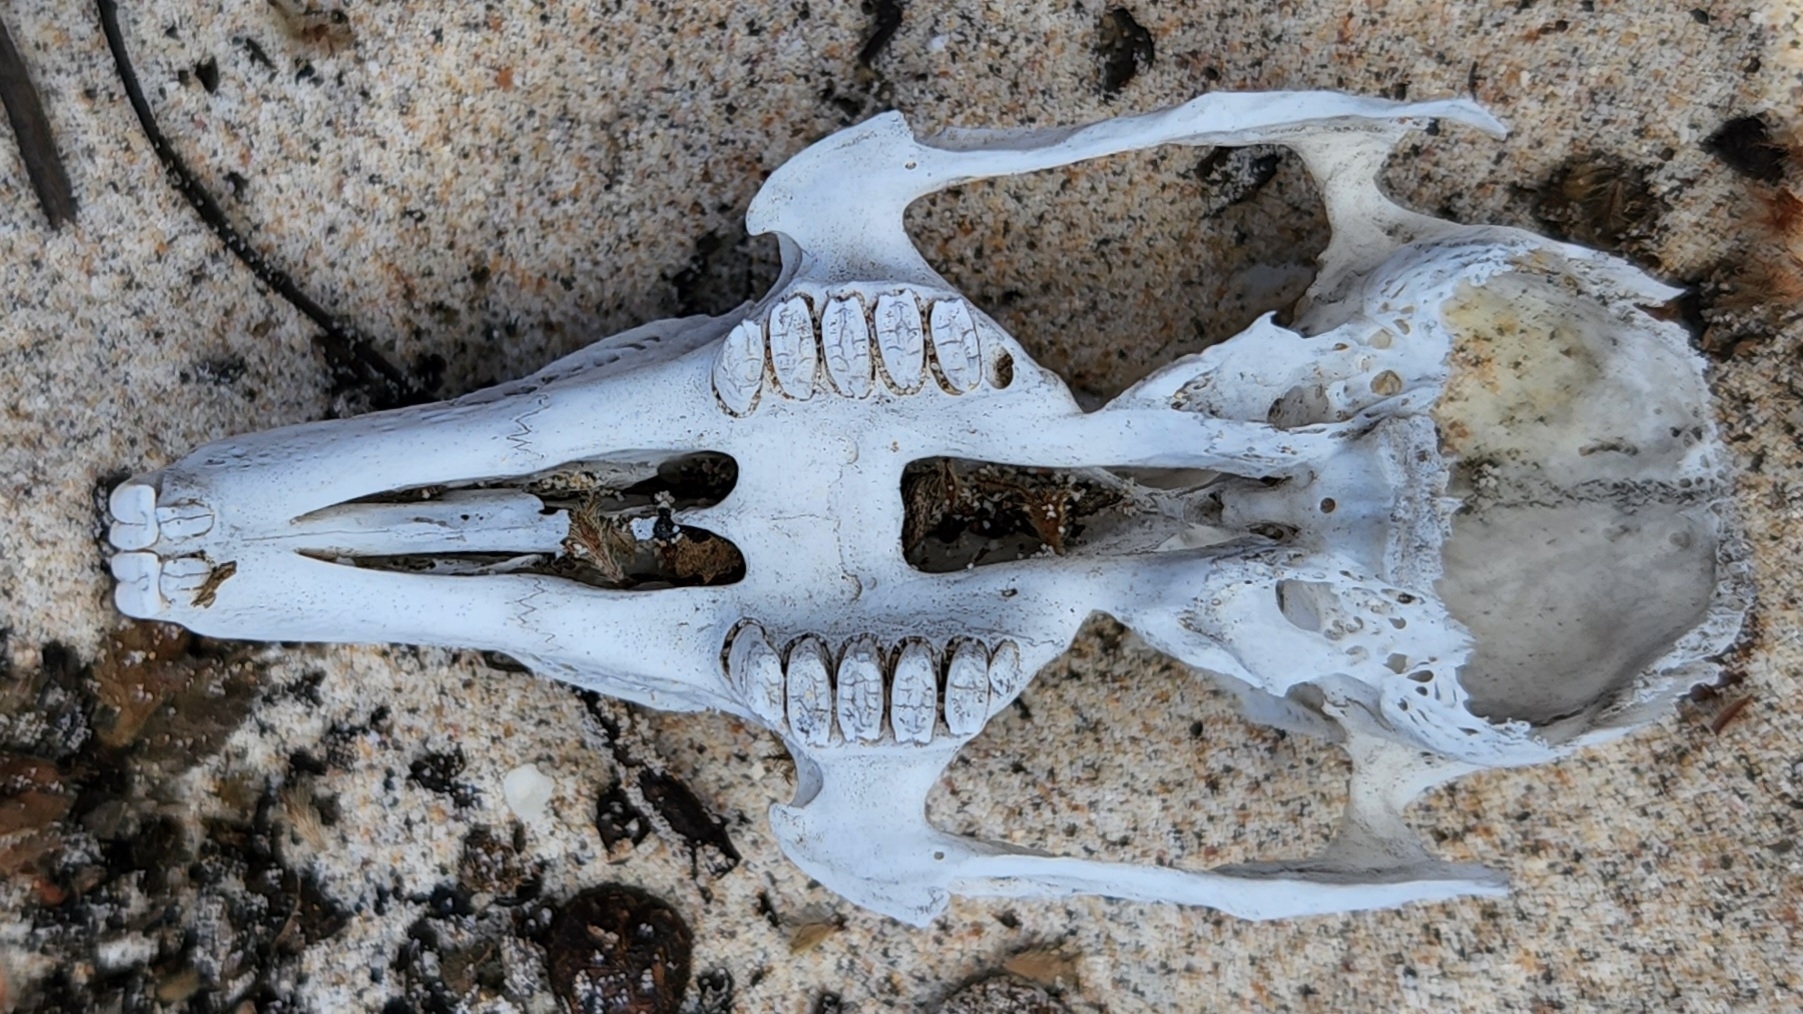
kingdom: Animalia
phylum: Chordata
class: Mammalia
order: Lagomorpha
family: Leporidae
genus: Oryctolagus
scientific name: Oryctolagus cuniculus
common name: European rabbit
